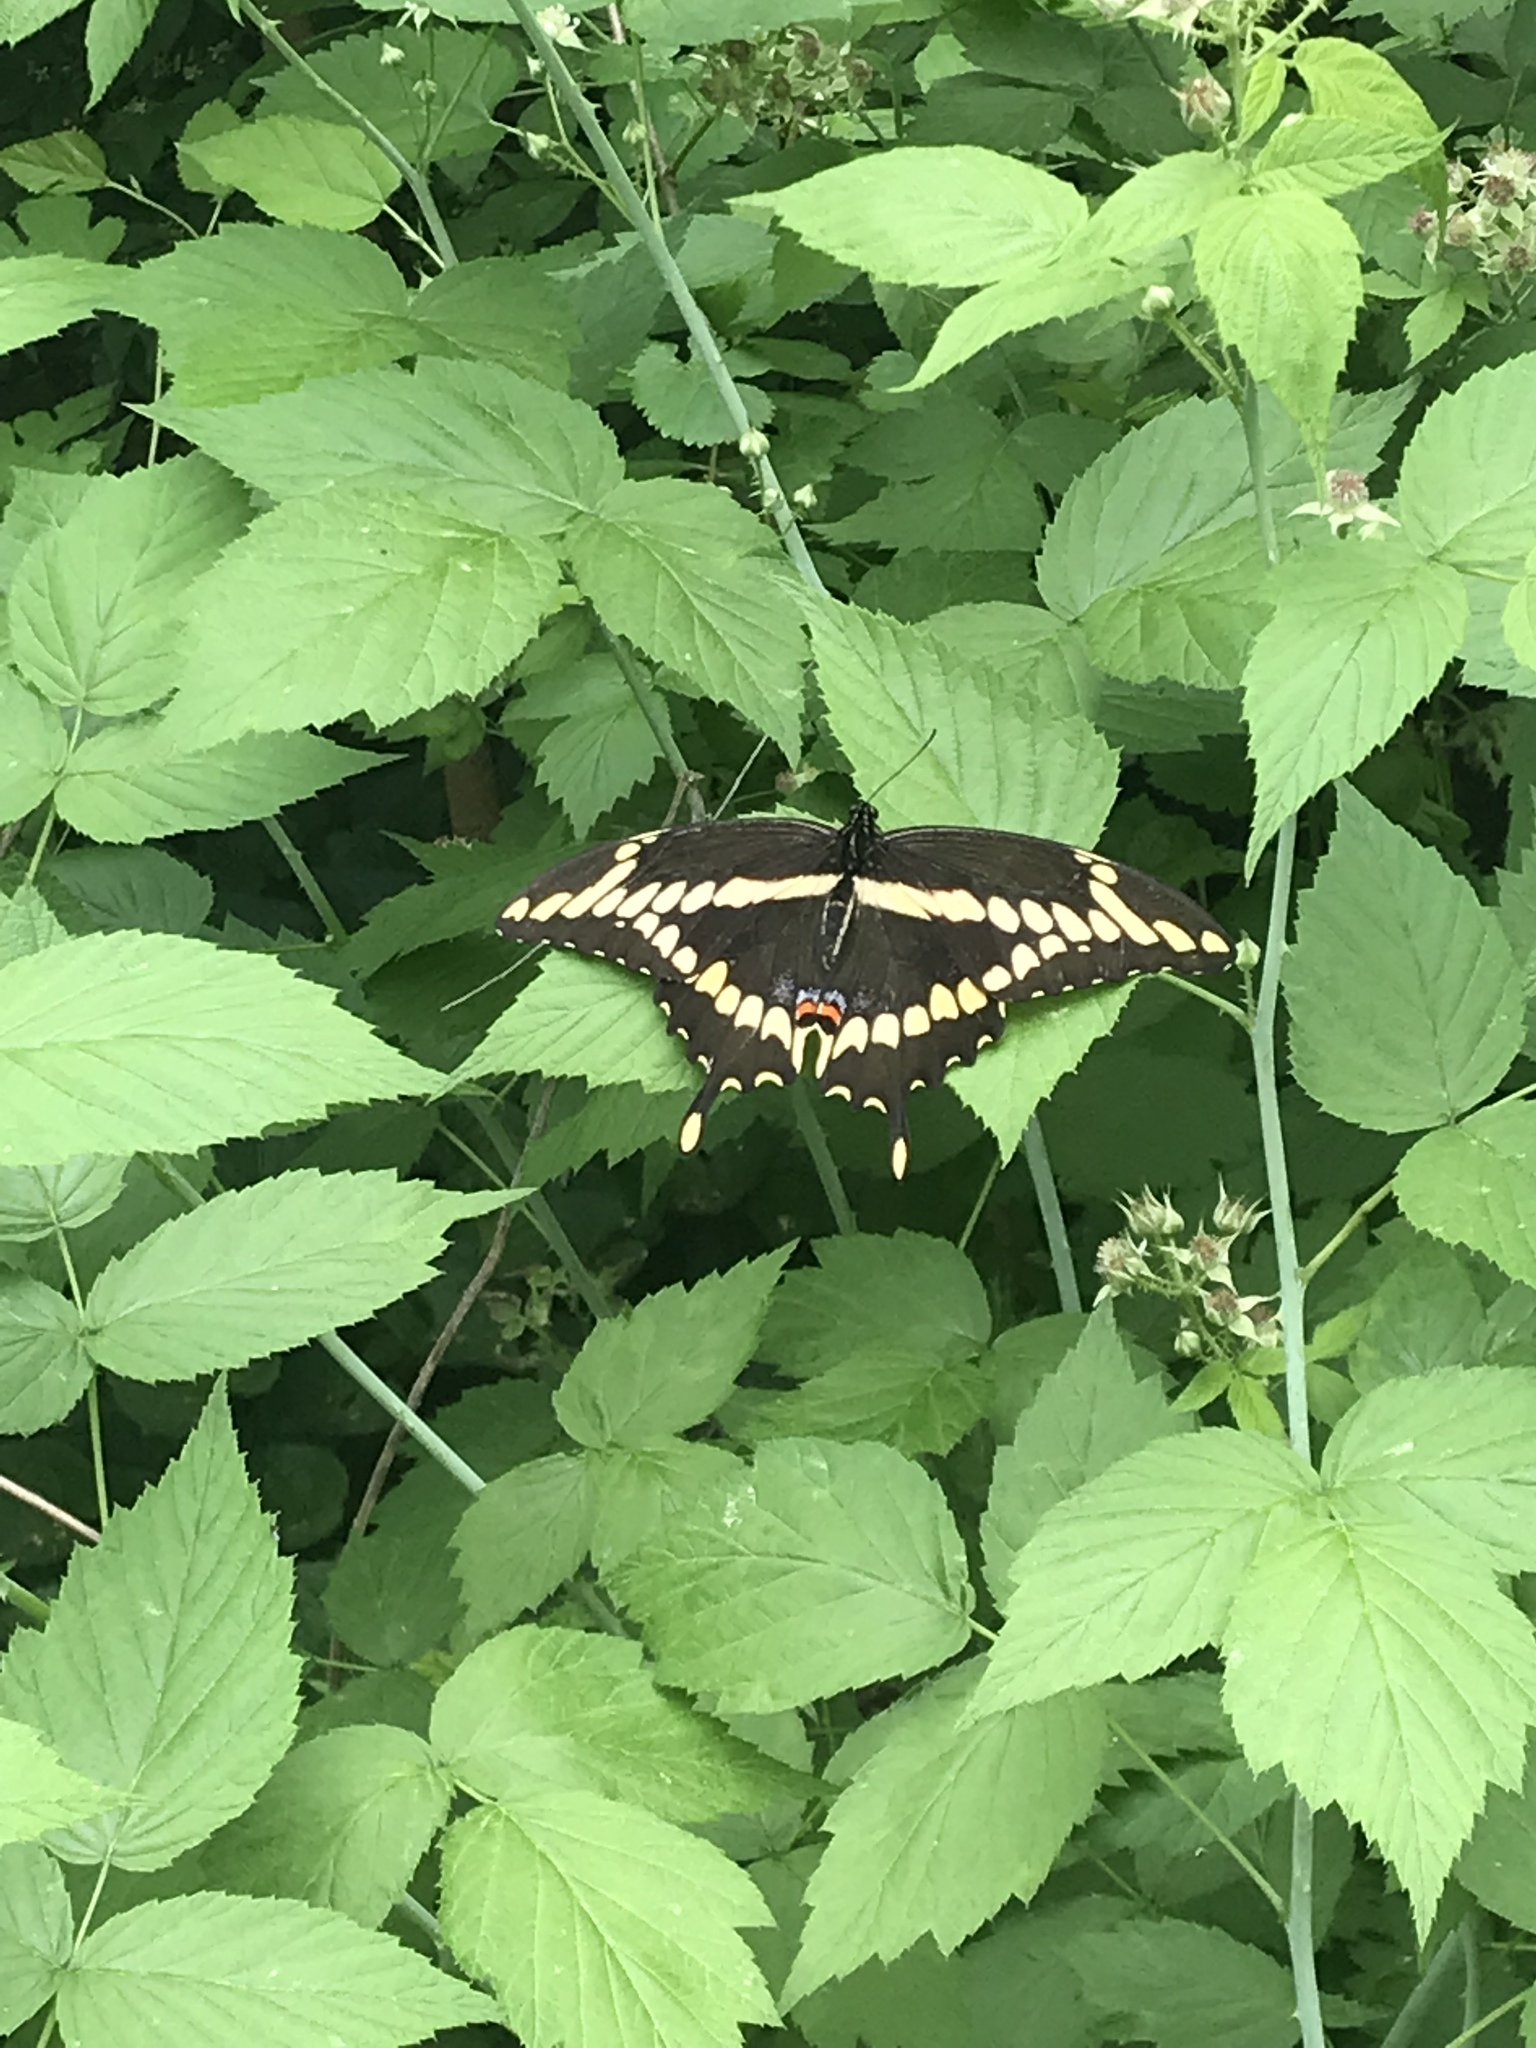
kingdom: Animalia
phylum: Arthropoda
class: Insecta
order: Lepidoptera
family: Papilionidae
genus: Papilio
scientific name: Papilio cresphontes
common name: Giant swallowtail
